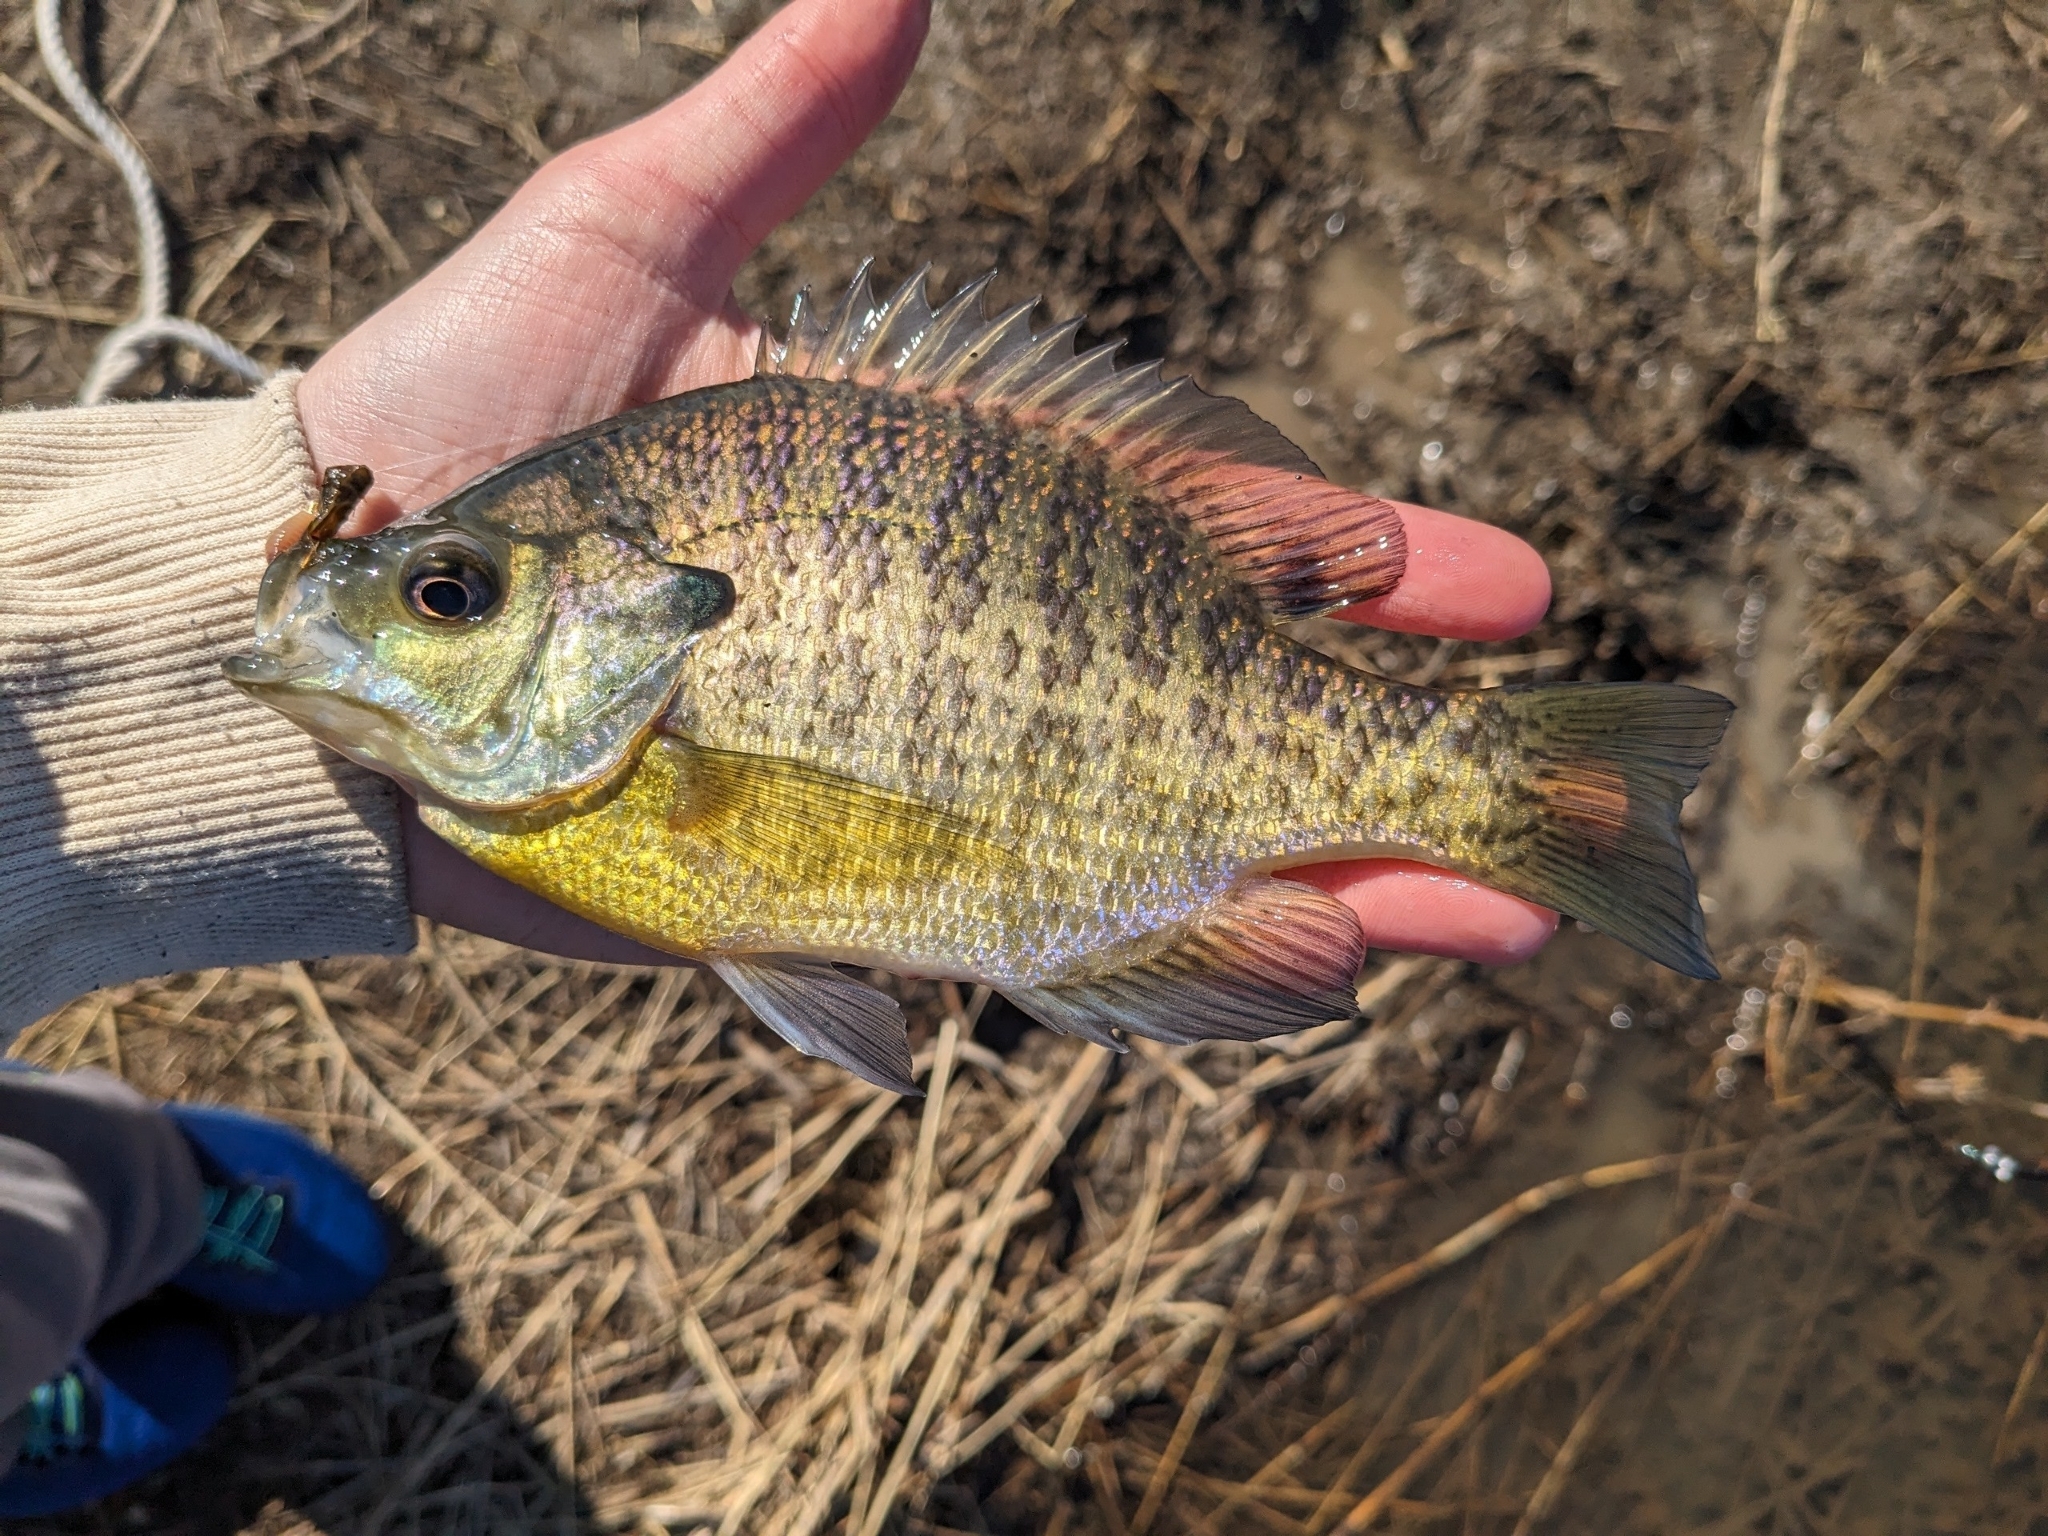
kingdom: Animalia
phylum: Chordata
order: Perciformes
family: Centrarchidae
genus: Lepomis
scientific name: Lepomis macrochirus
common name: Bluegill
